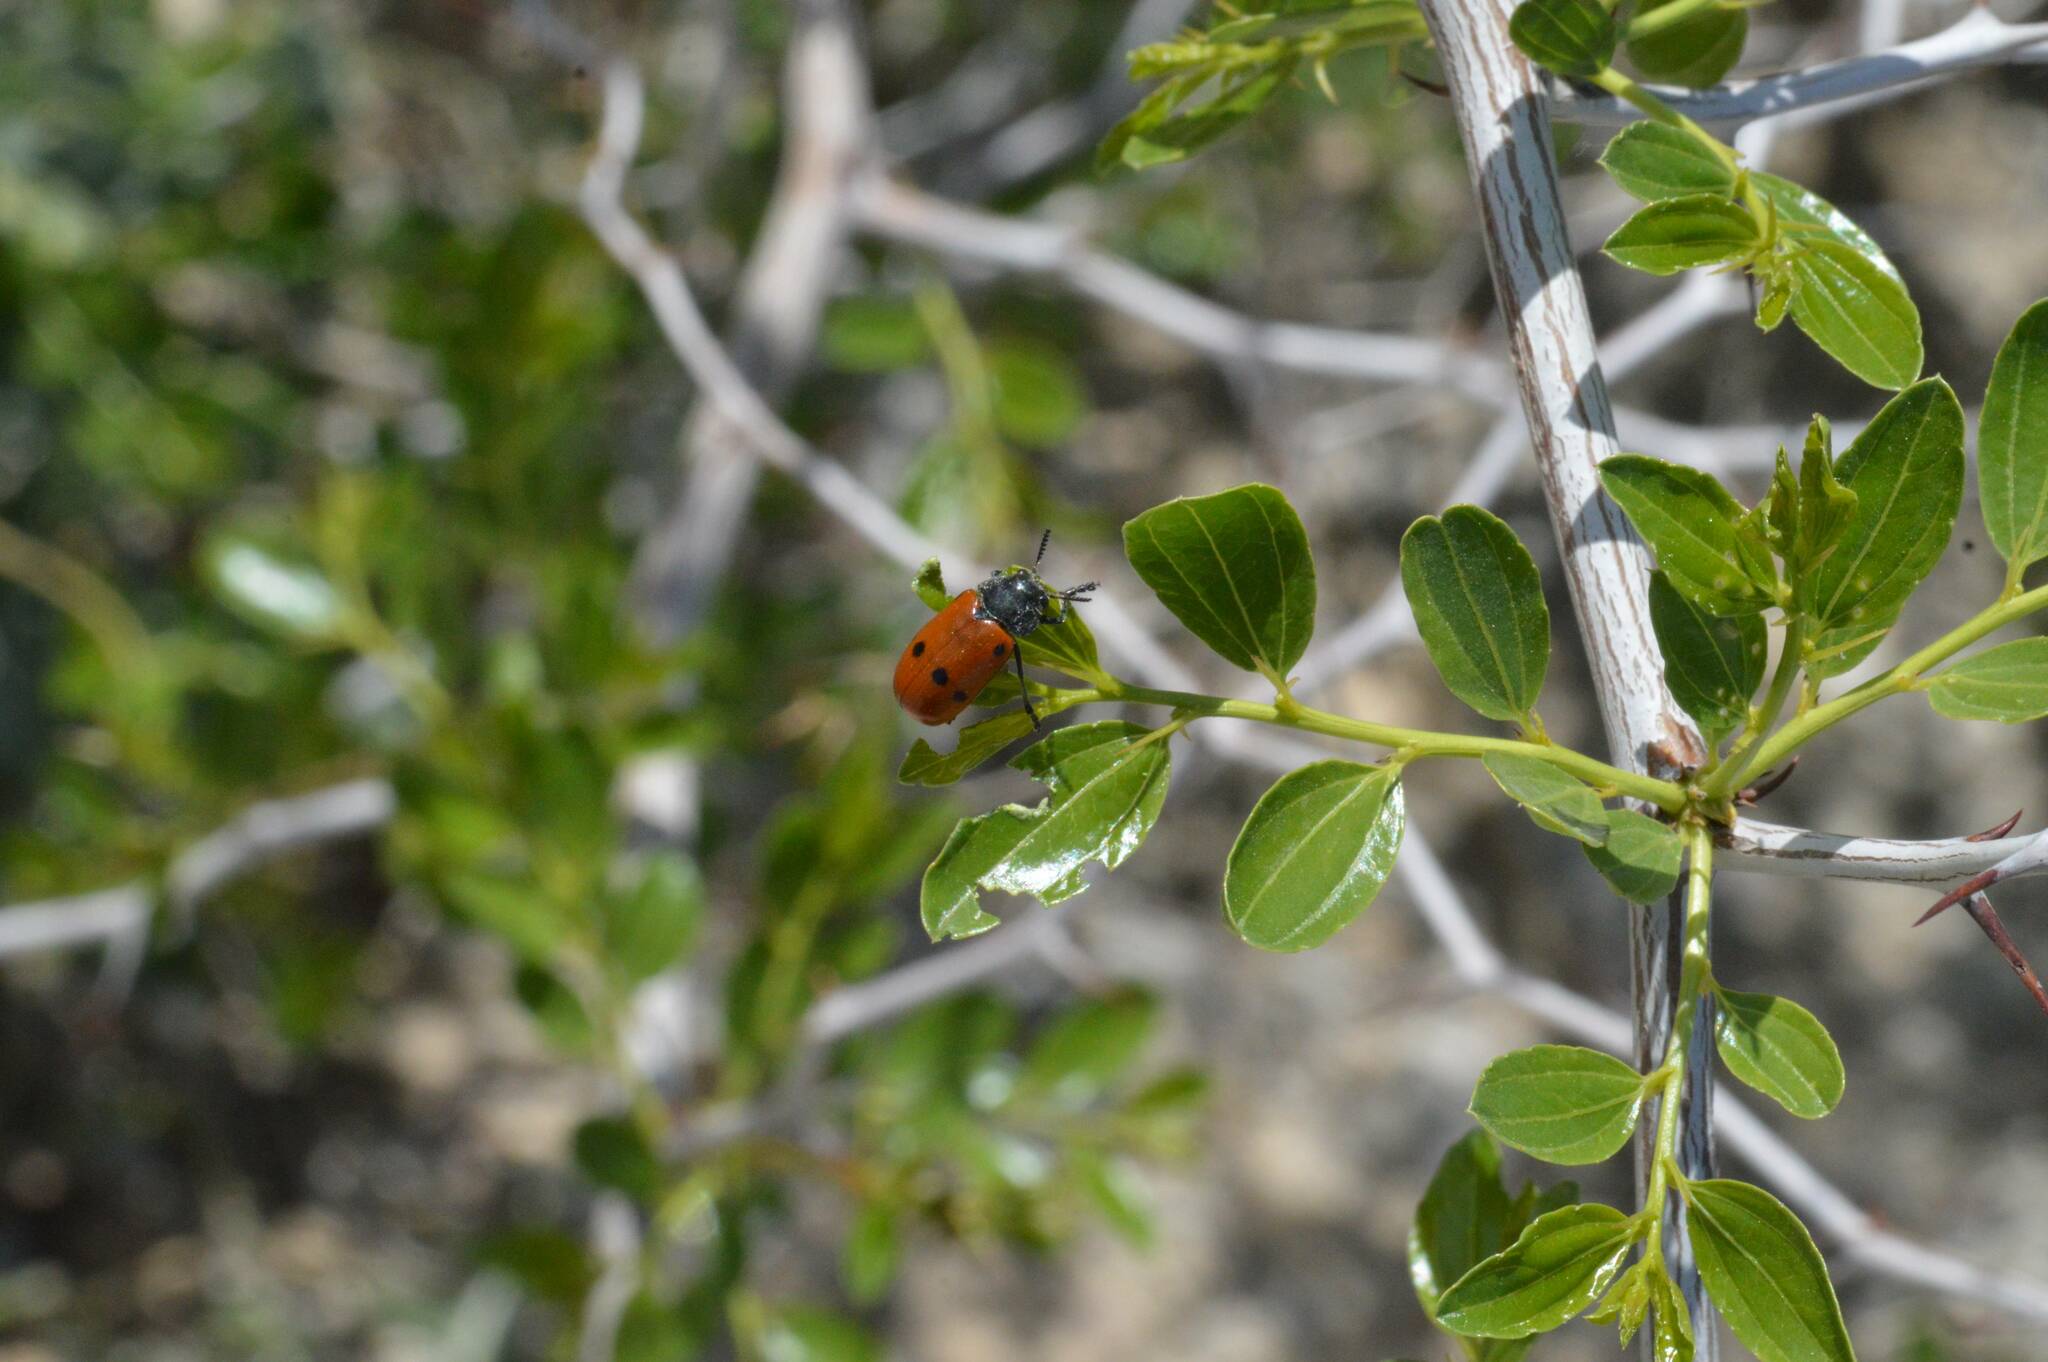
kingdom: Plantae
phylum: Tracheophyta
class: Magnoliopsida
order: Rosales
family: Rhamnaceae
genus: Ziziphus
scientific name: Ziziphus lotus
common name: Lotus
